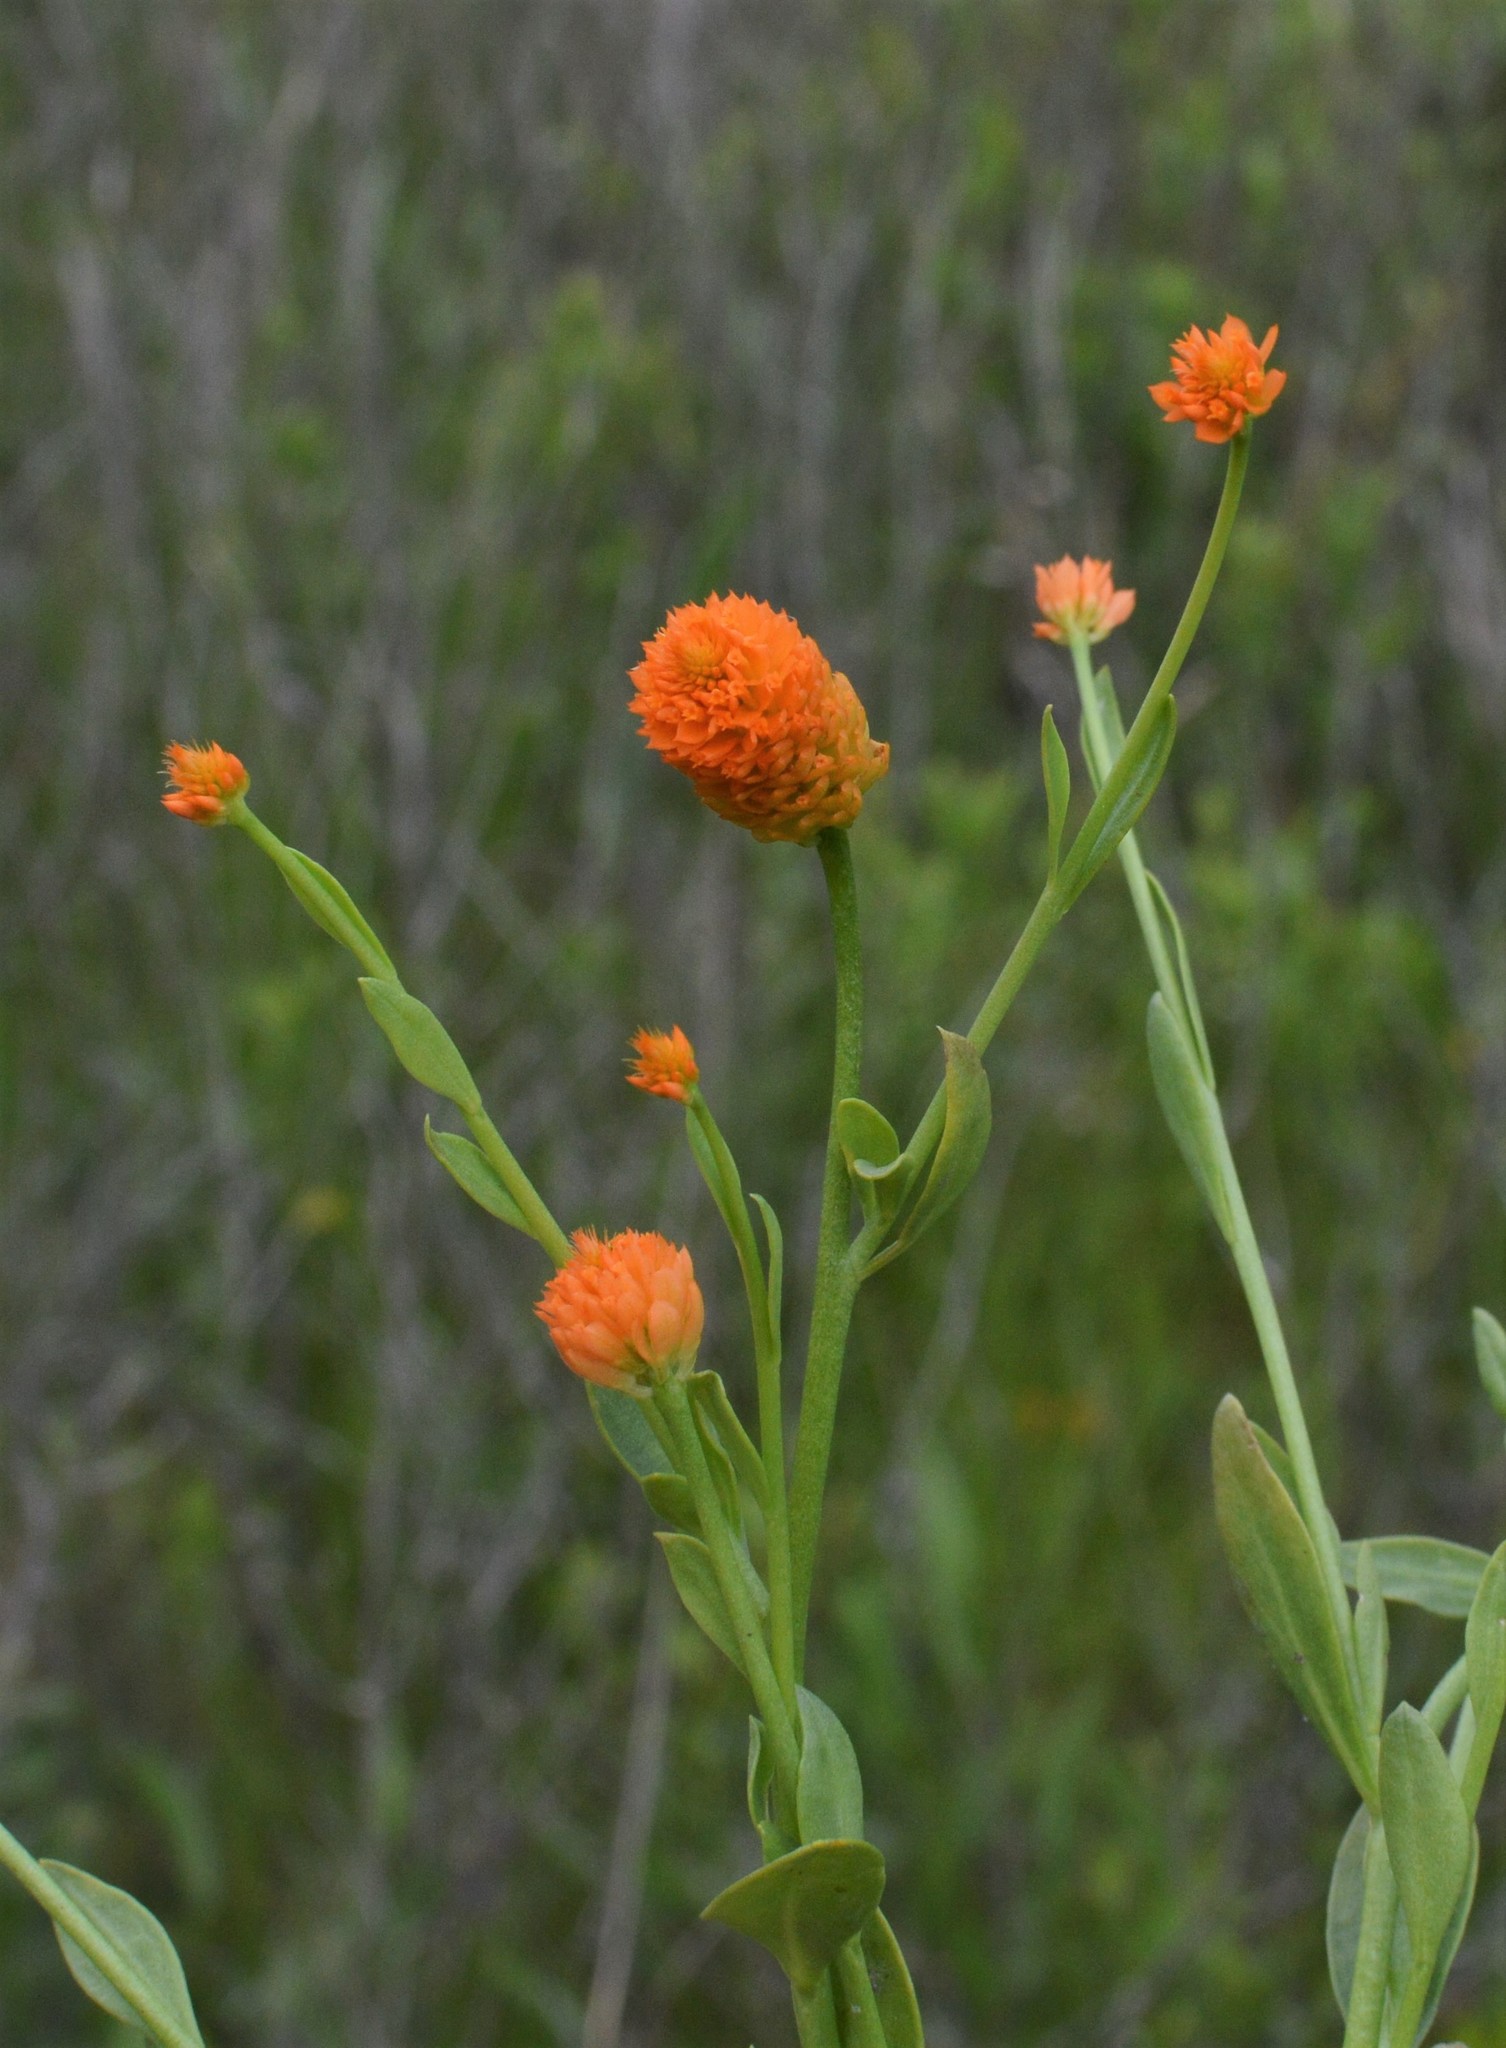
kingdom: Plantae
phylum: Tracheophyta
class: Magnoliopsida
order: Fabales
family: Polygalaceae
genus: Polygala
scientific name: Polygala lutea
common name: Orange milkwort
